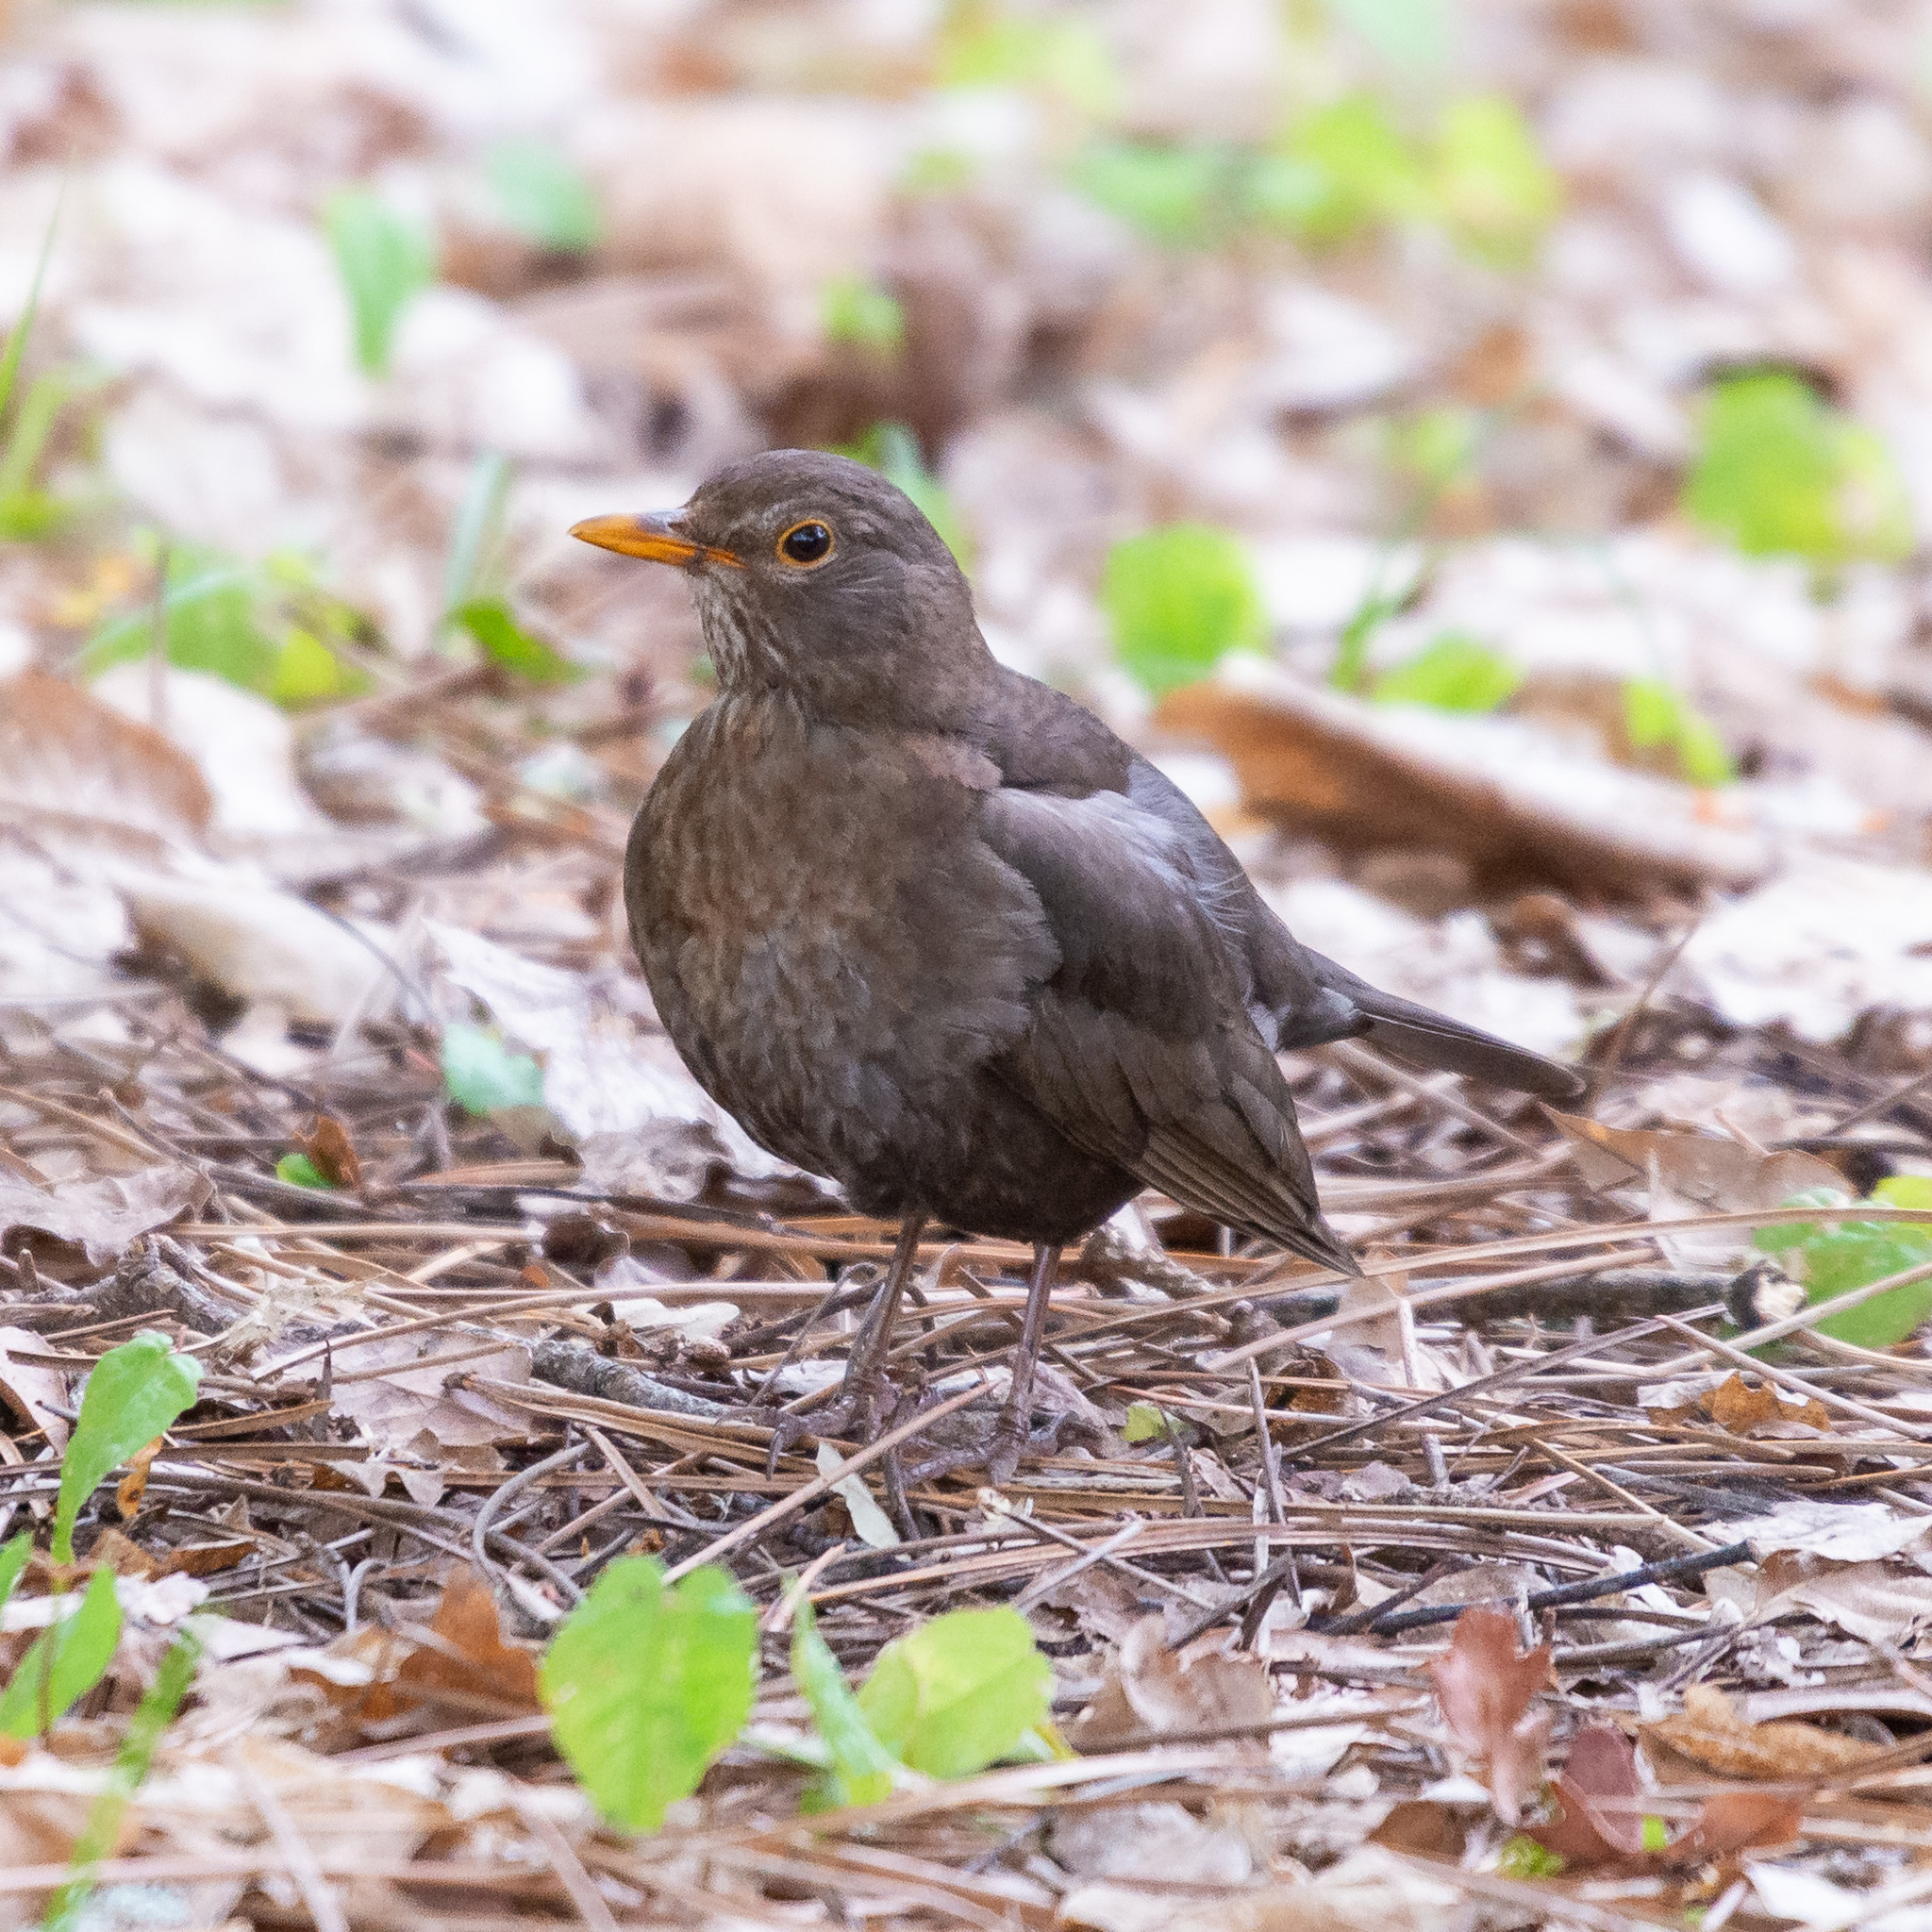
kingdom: Animalia
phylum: Chordata
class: Aves
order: Passeriformes
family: Turdidae
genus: Turdus
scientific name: Turdus merula
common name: Common blackbird
